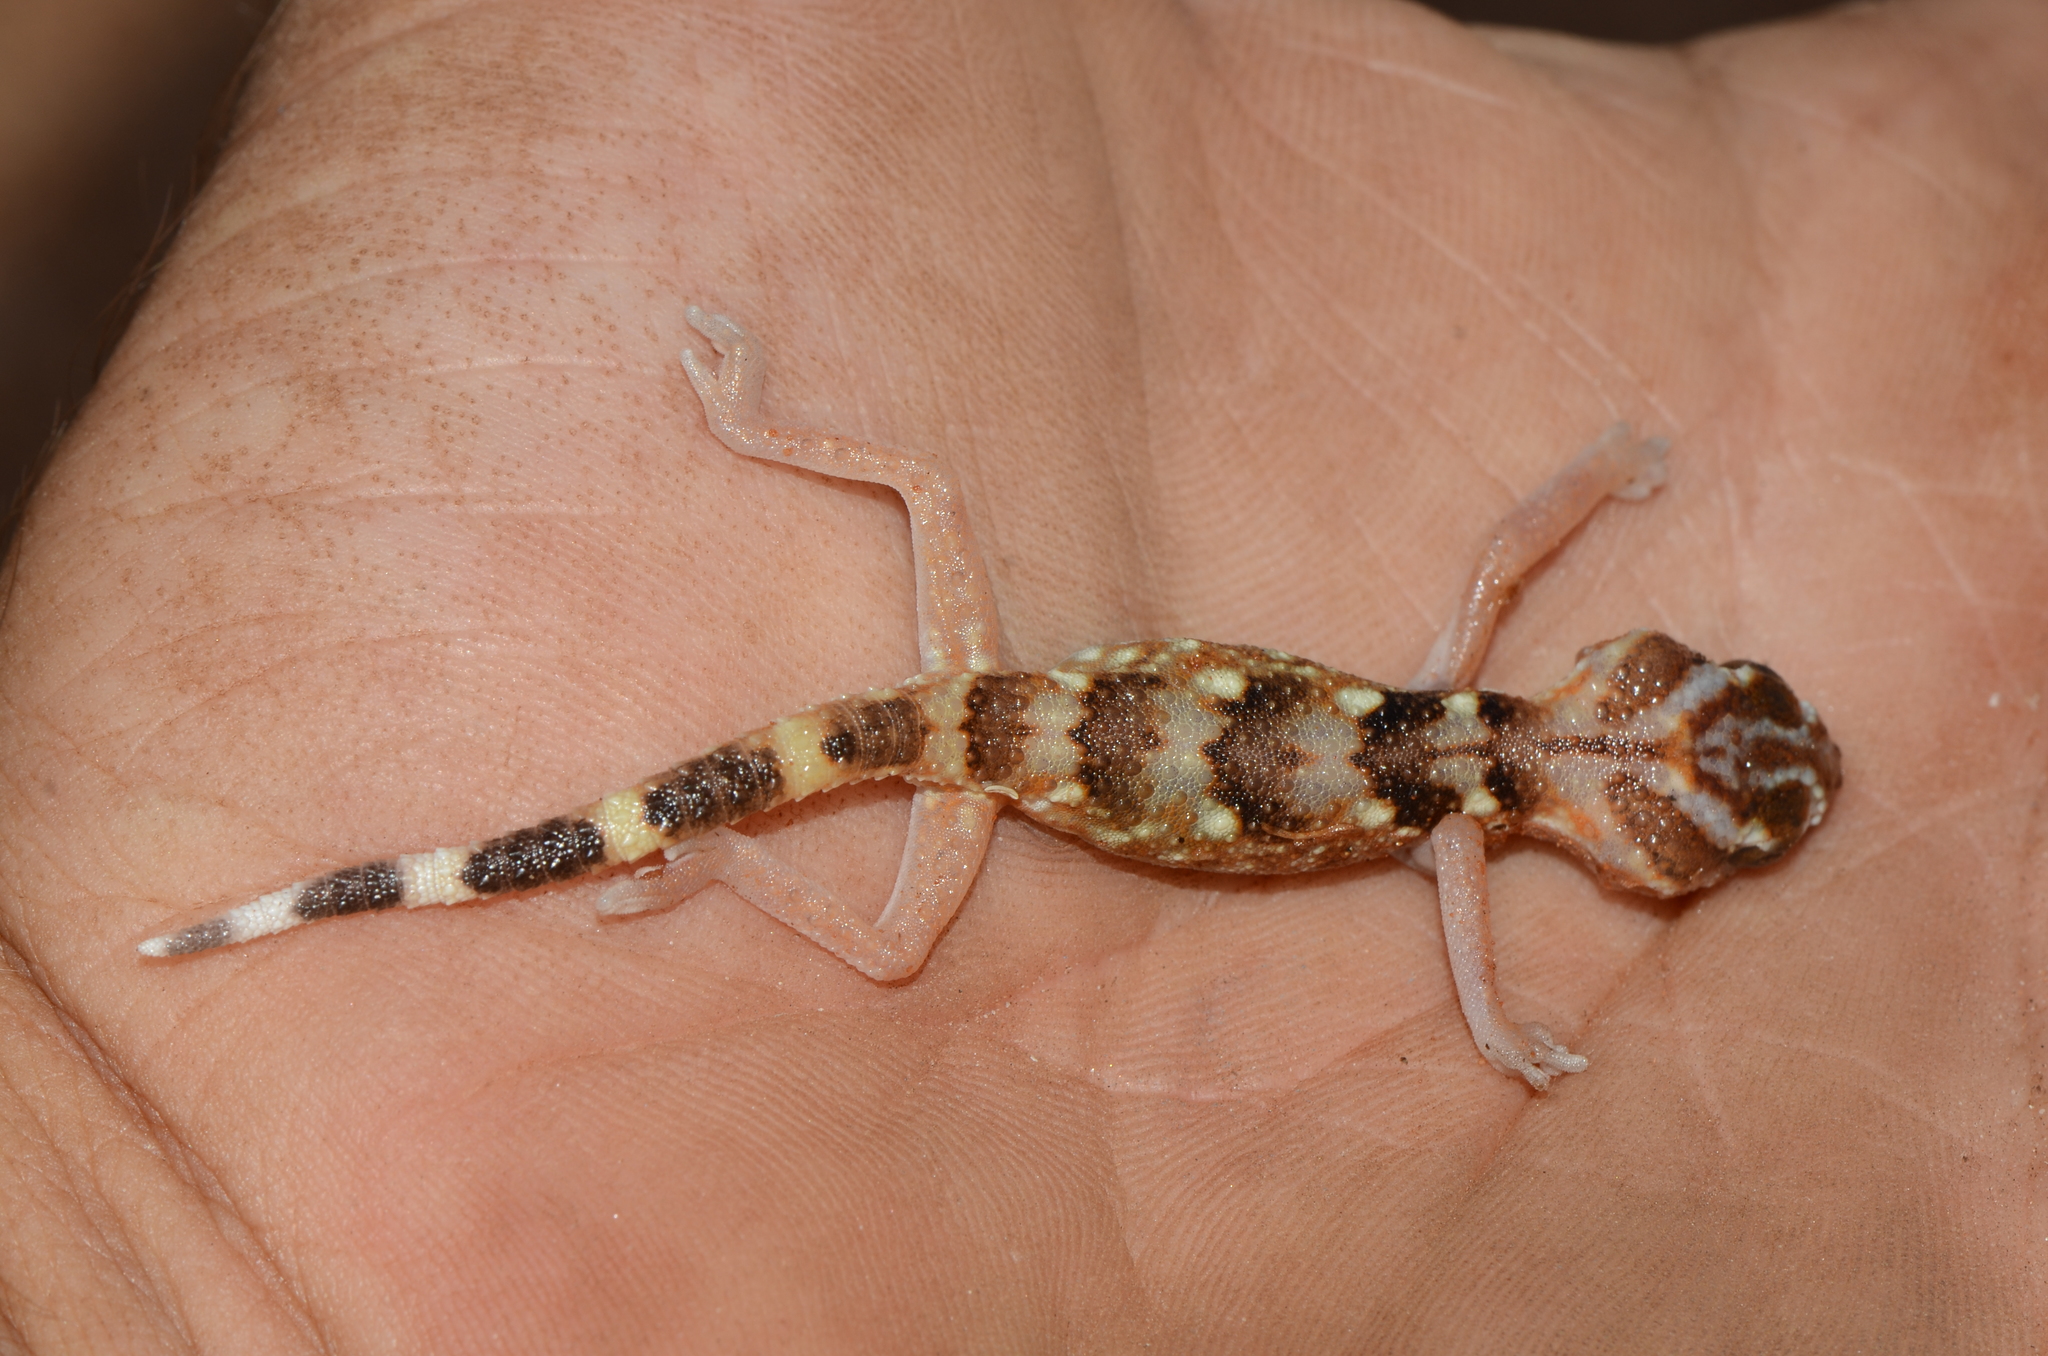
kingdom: Animalia
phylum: Chordata
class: Squamata
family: Gekkonidae
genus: Chondrodactylus
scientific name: Chondrodactylus angulifer
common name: Common giant ground gecko
